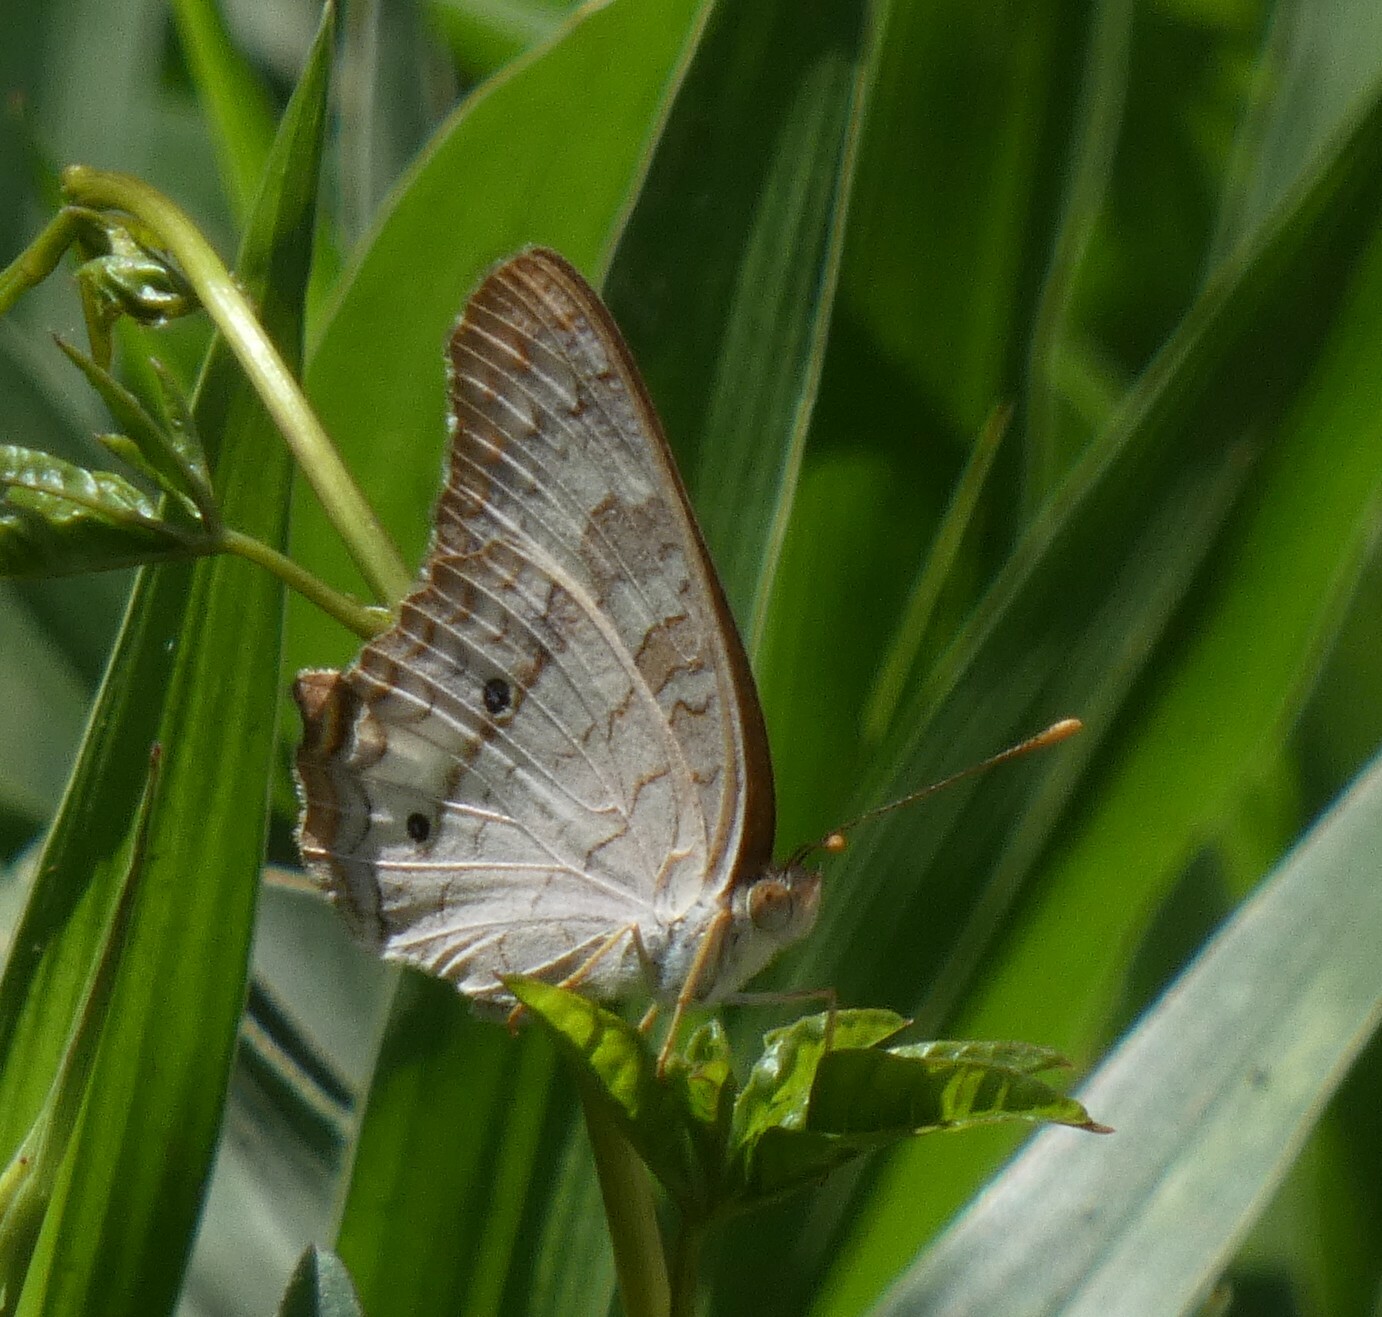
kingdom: Animalia
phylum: Arthropoda
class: Insecta
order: Lepidoptera
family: Nymphalidae
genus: Anartia
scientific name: Anartia jatrophae
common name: White peacock
